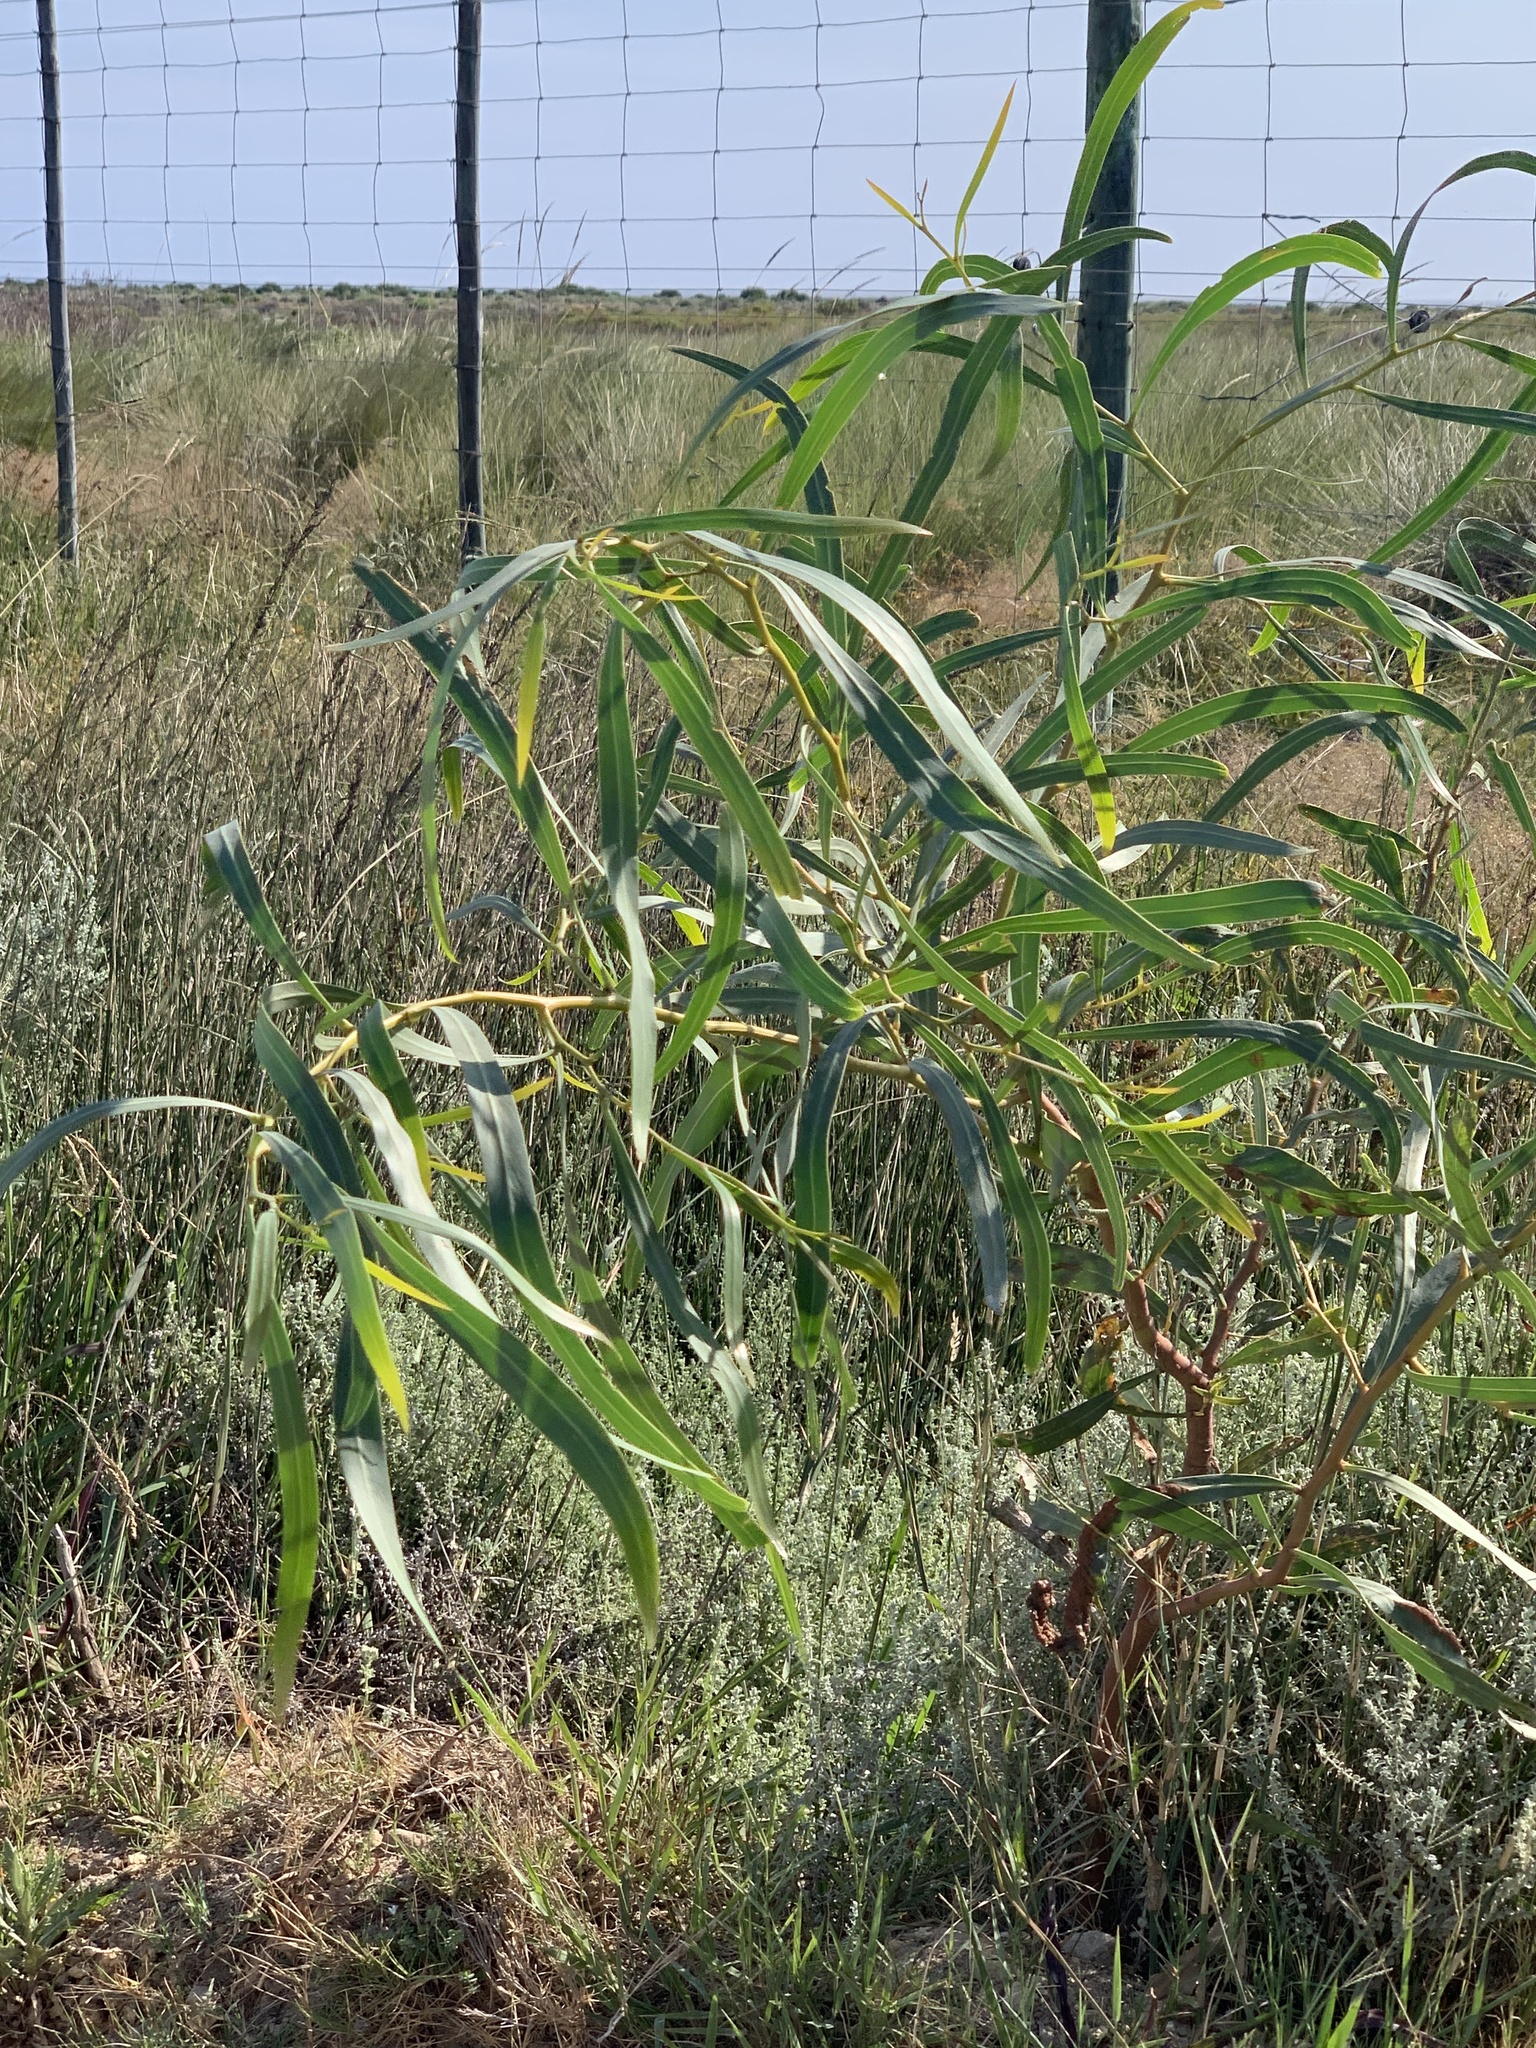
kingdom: Plantae
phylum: Tracheophyta
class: Magnoliopsida
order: Fabales
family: Fabaceae
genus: Acacia
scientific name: Acacia saligna
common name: Orange wattle
